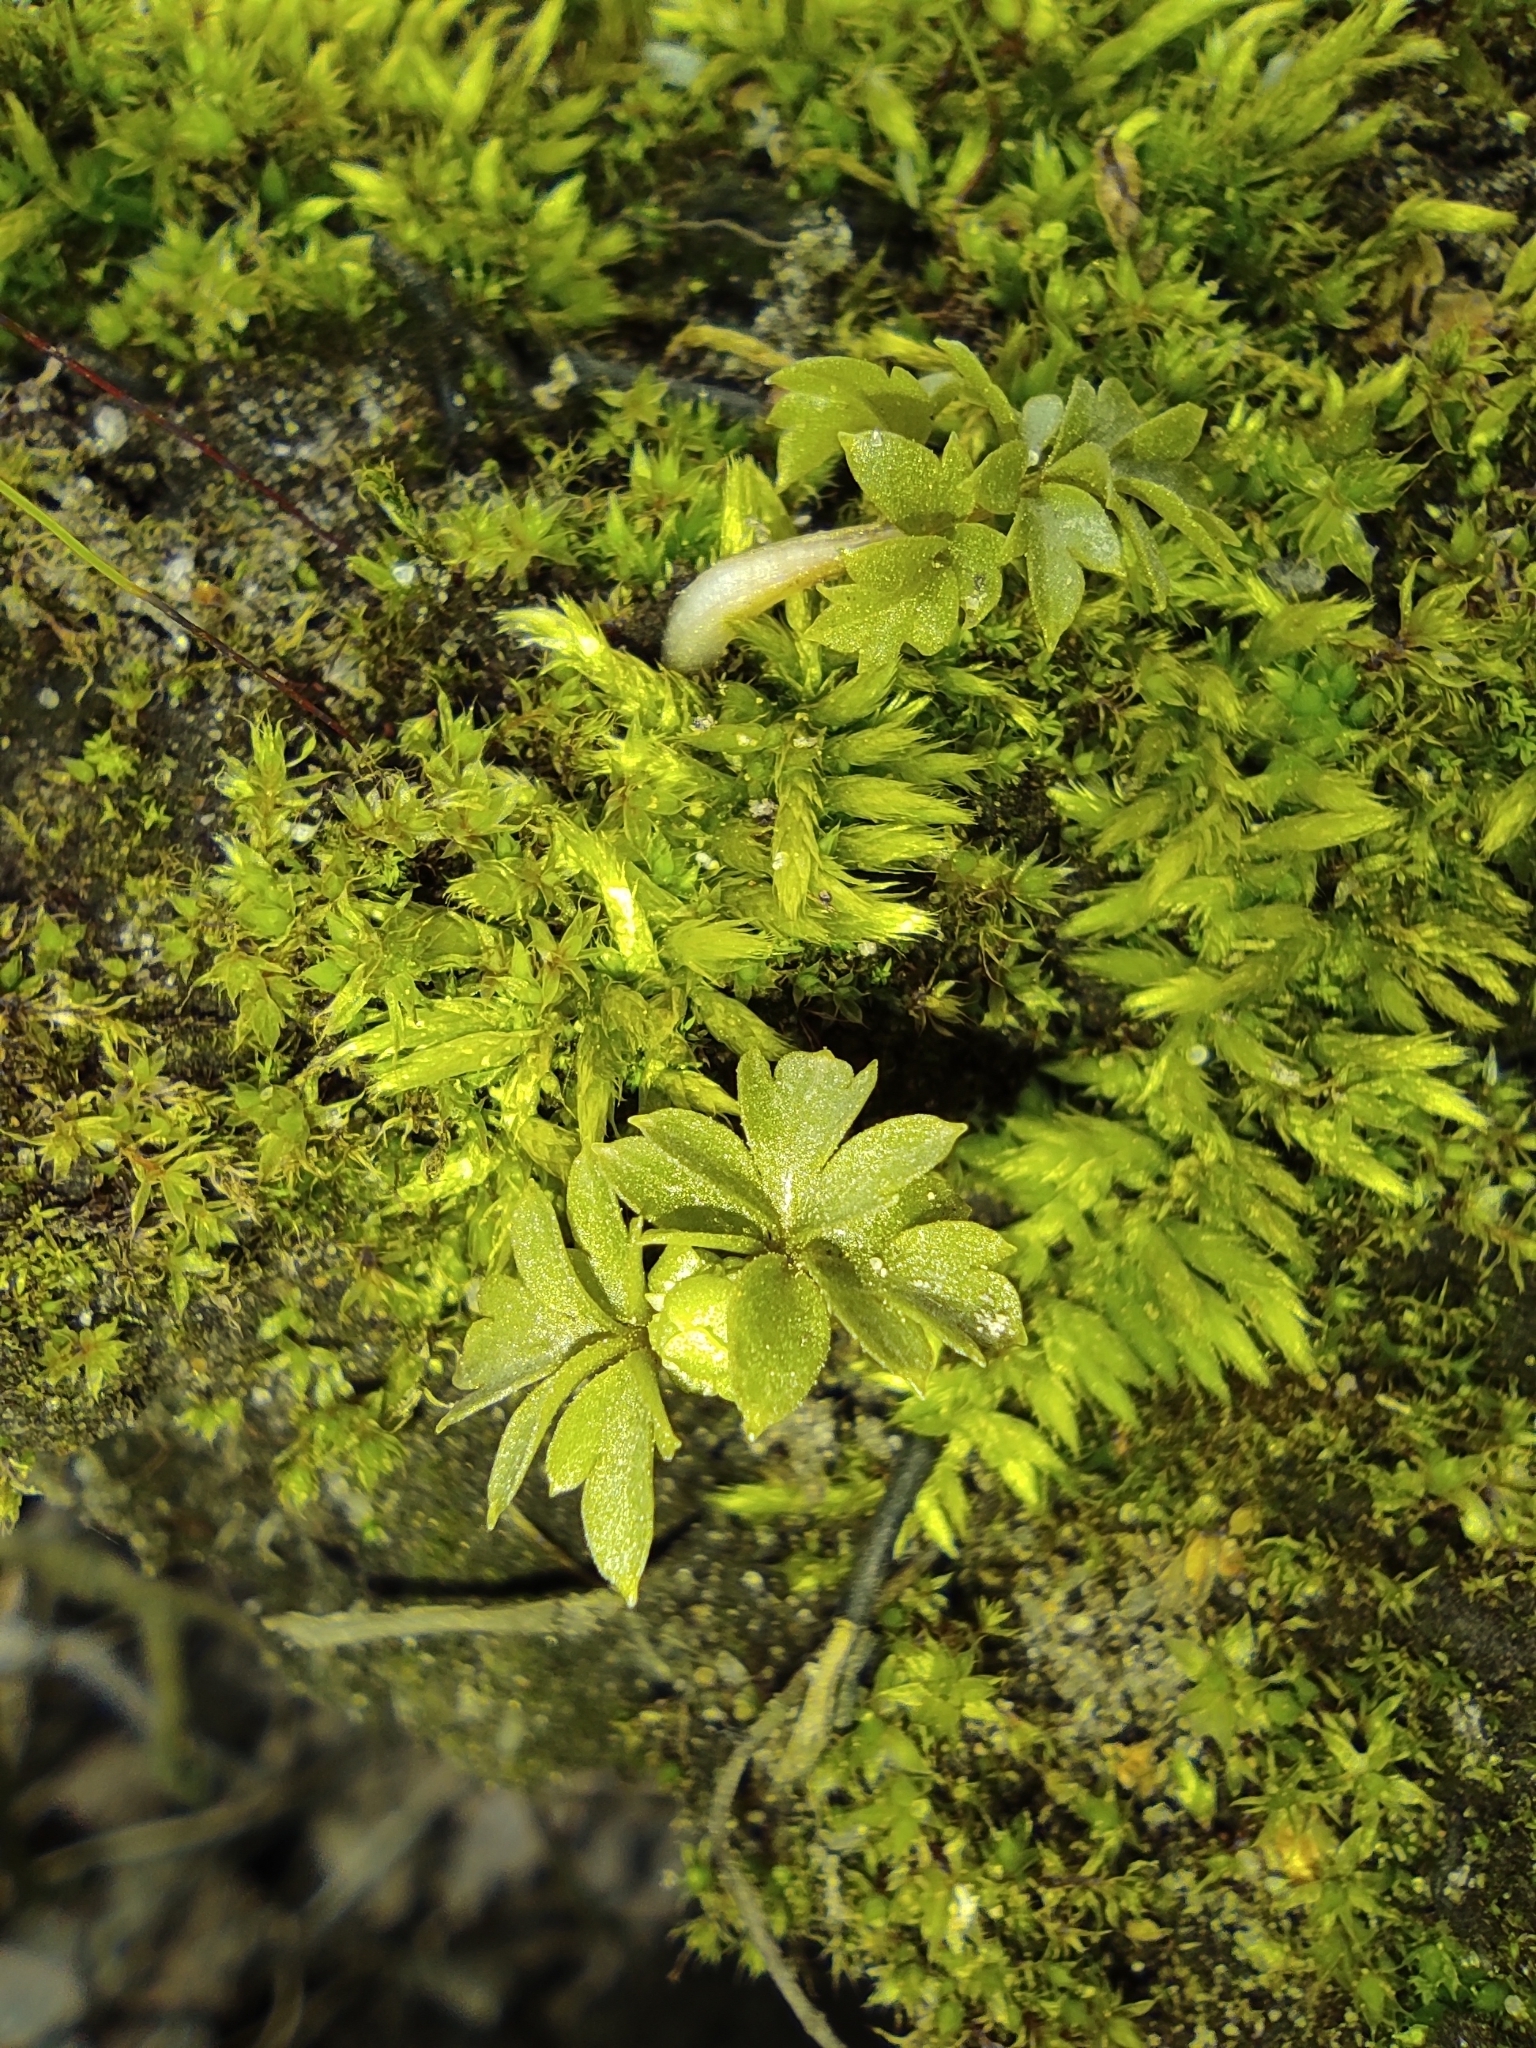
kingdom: Plantae
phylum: Tracheophyta
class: Magnoliopsida
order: Dipsacales
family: Viburnaceae
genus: Adoxa
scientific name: Adoxa moschatellina
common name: Moschatel
